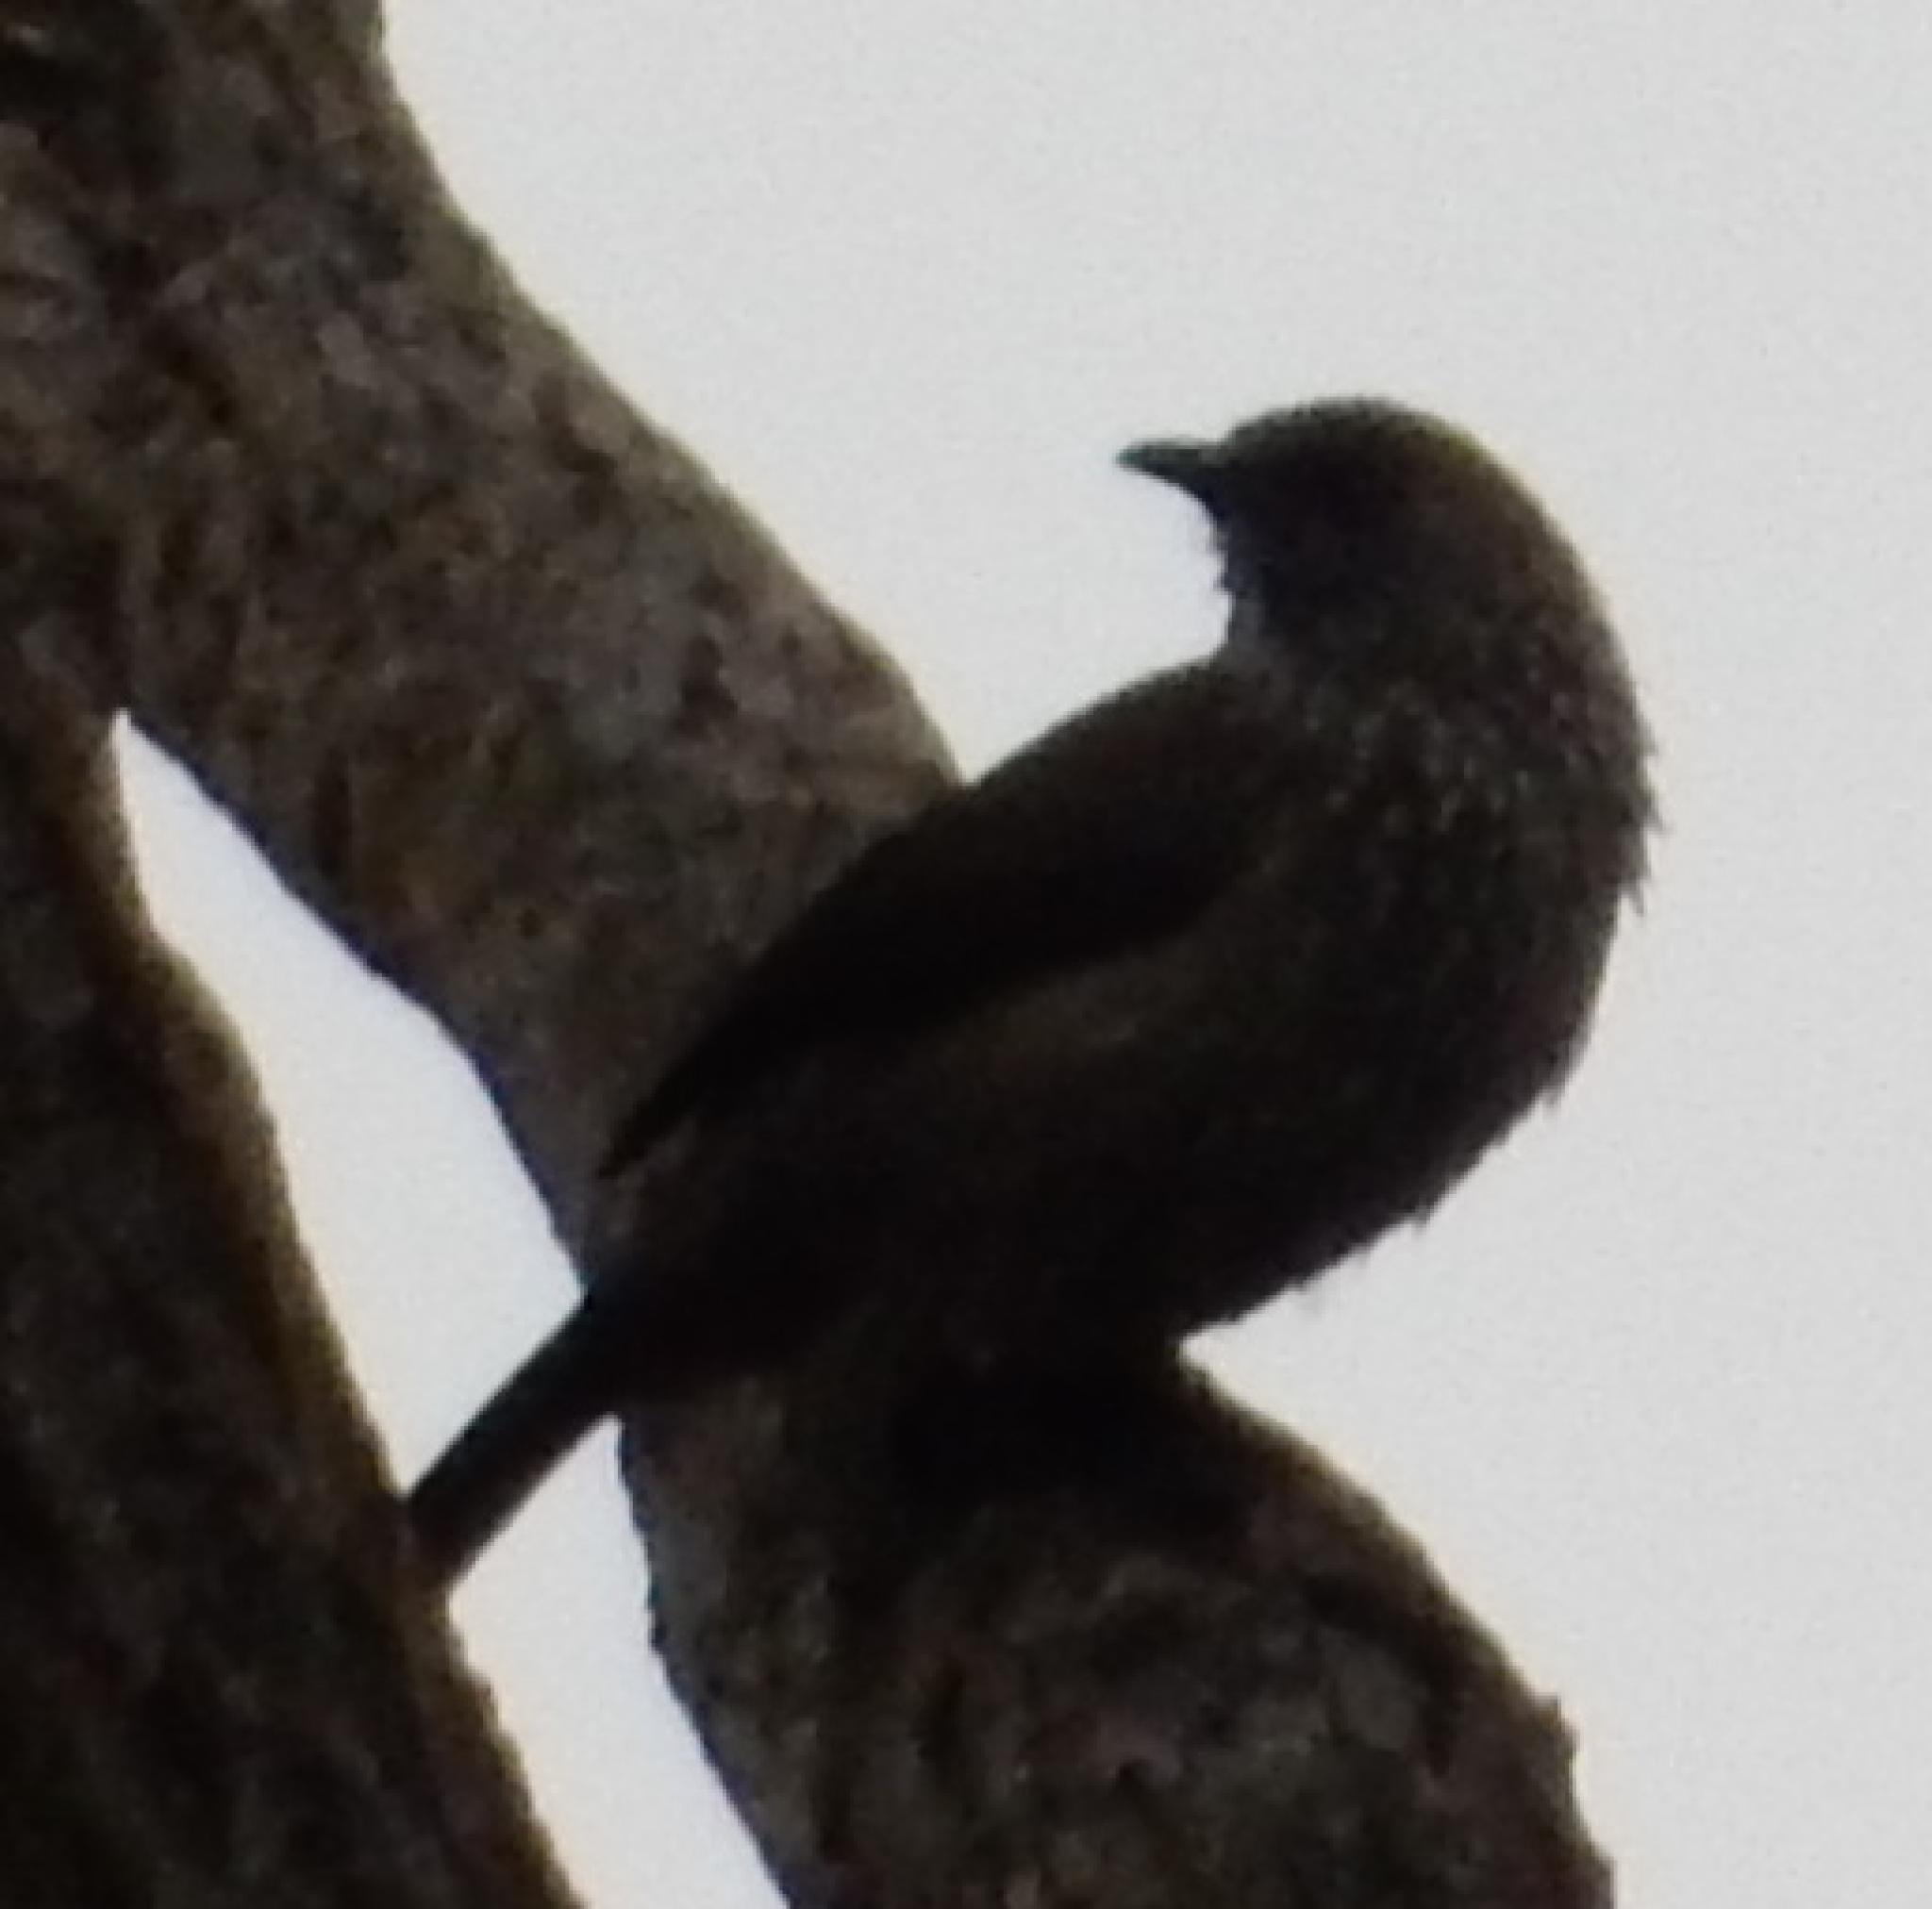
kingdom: Animalia
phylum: Chordata
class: Aves
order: Passeriformes
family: Leiothrichidae
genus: Turdoides
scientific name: Turdoides jardineii
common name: Arrow-marked babbler
